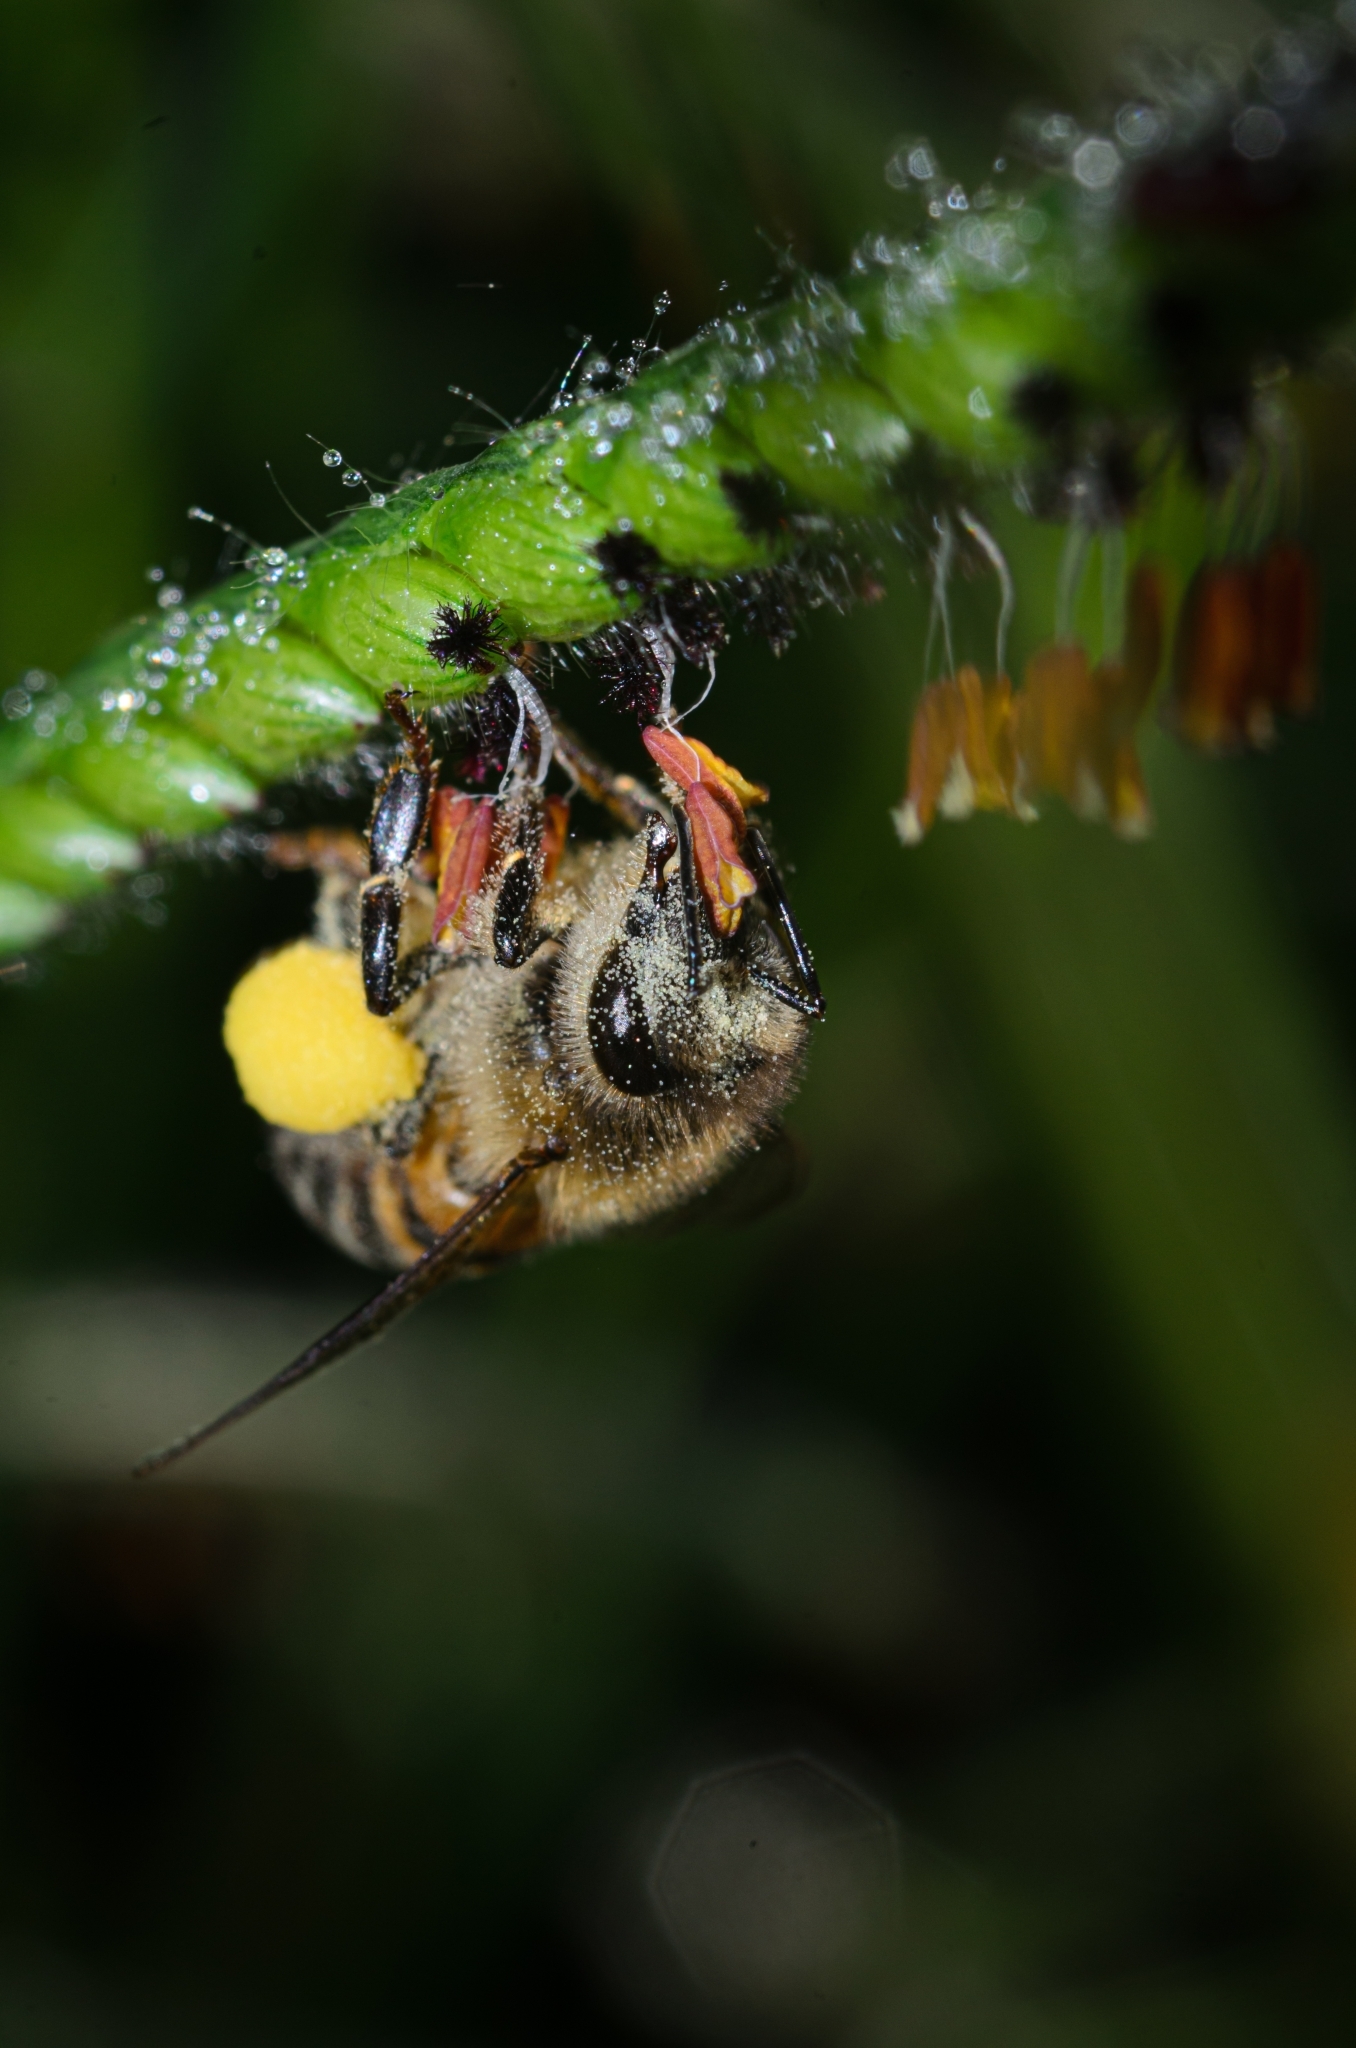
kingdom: Animalia
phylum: Arthropoda
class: Insecta
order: Hymenoptera
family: Apidae
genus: Apis
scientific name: Apis mellifera
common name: Honey bee
